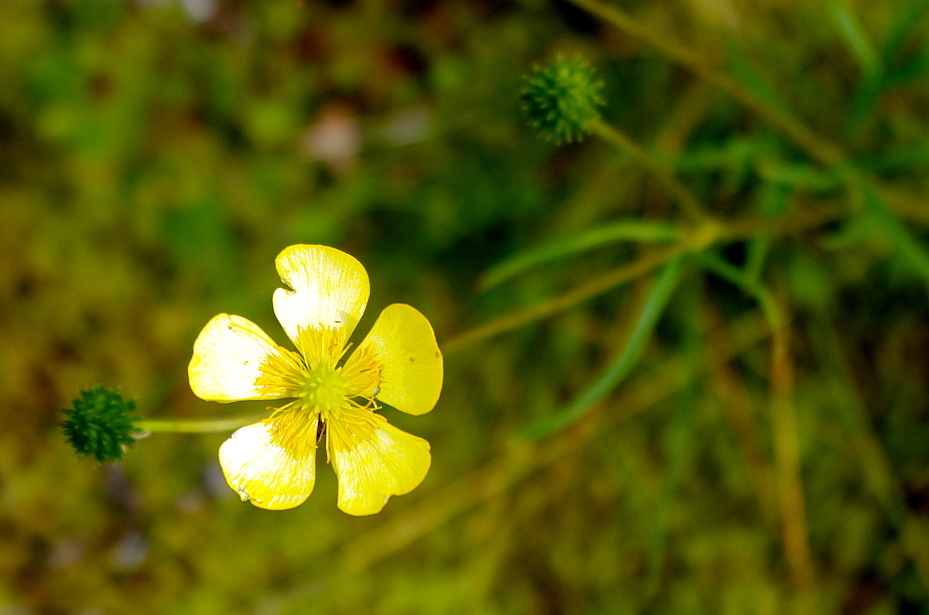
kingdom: Plantae
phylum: Tracheophyta
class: Magnoliopsida
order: Ranunculales
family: Ranunculaceae
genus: Ranunculus
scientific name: Ranunculus polyanthemos
